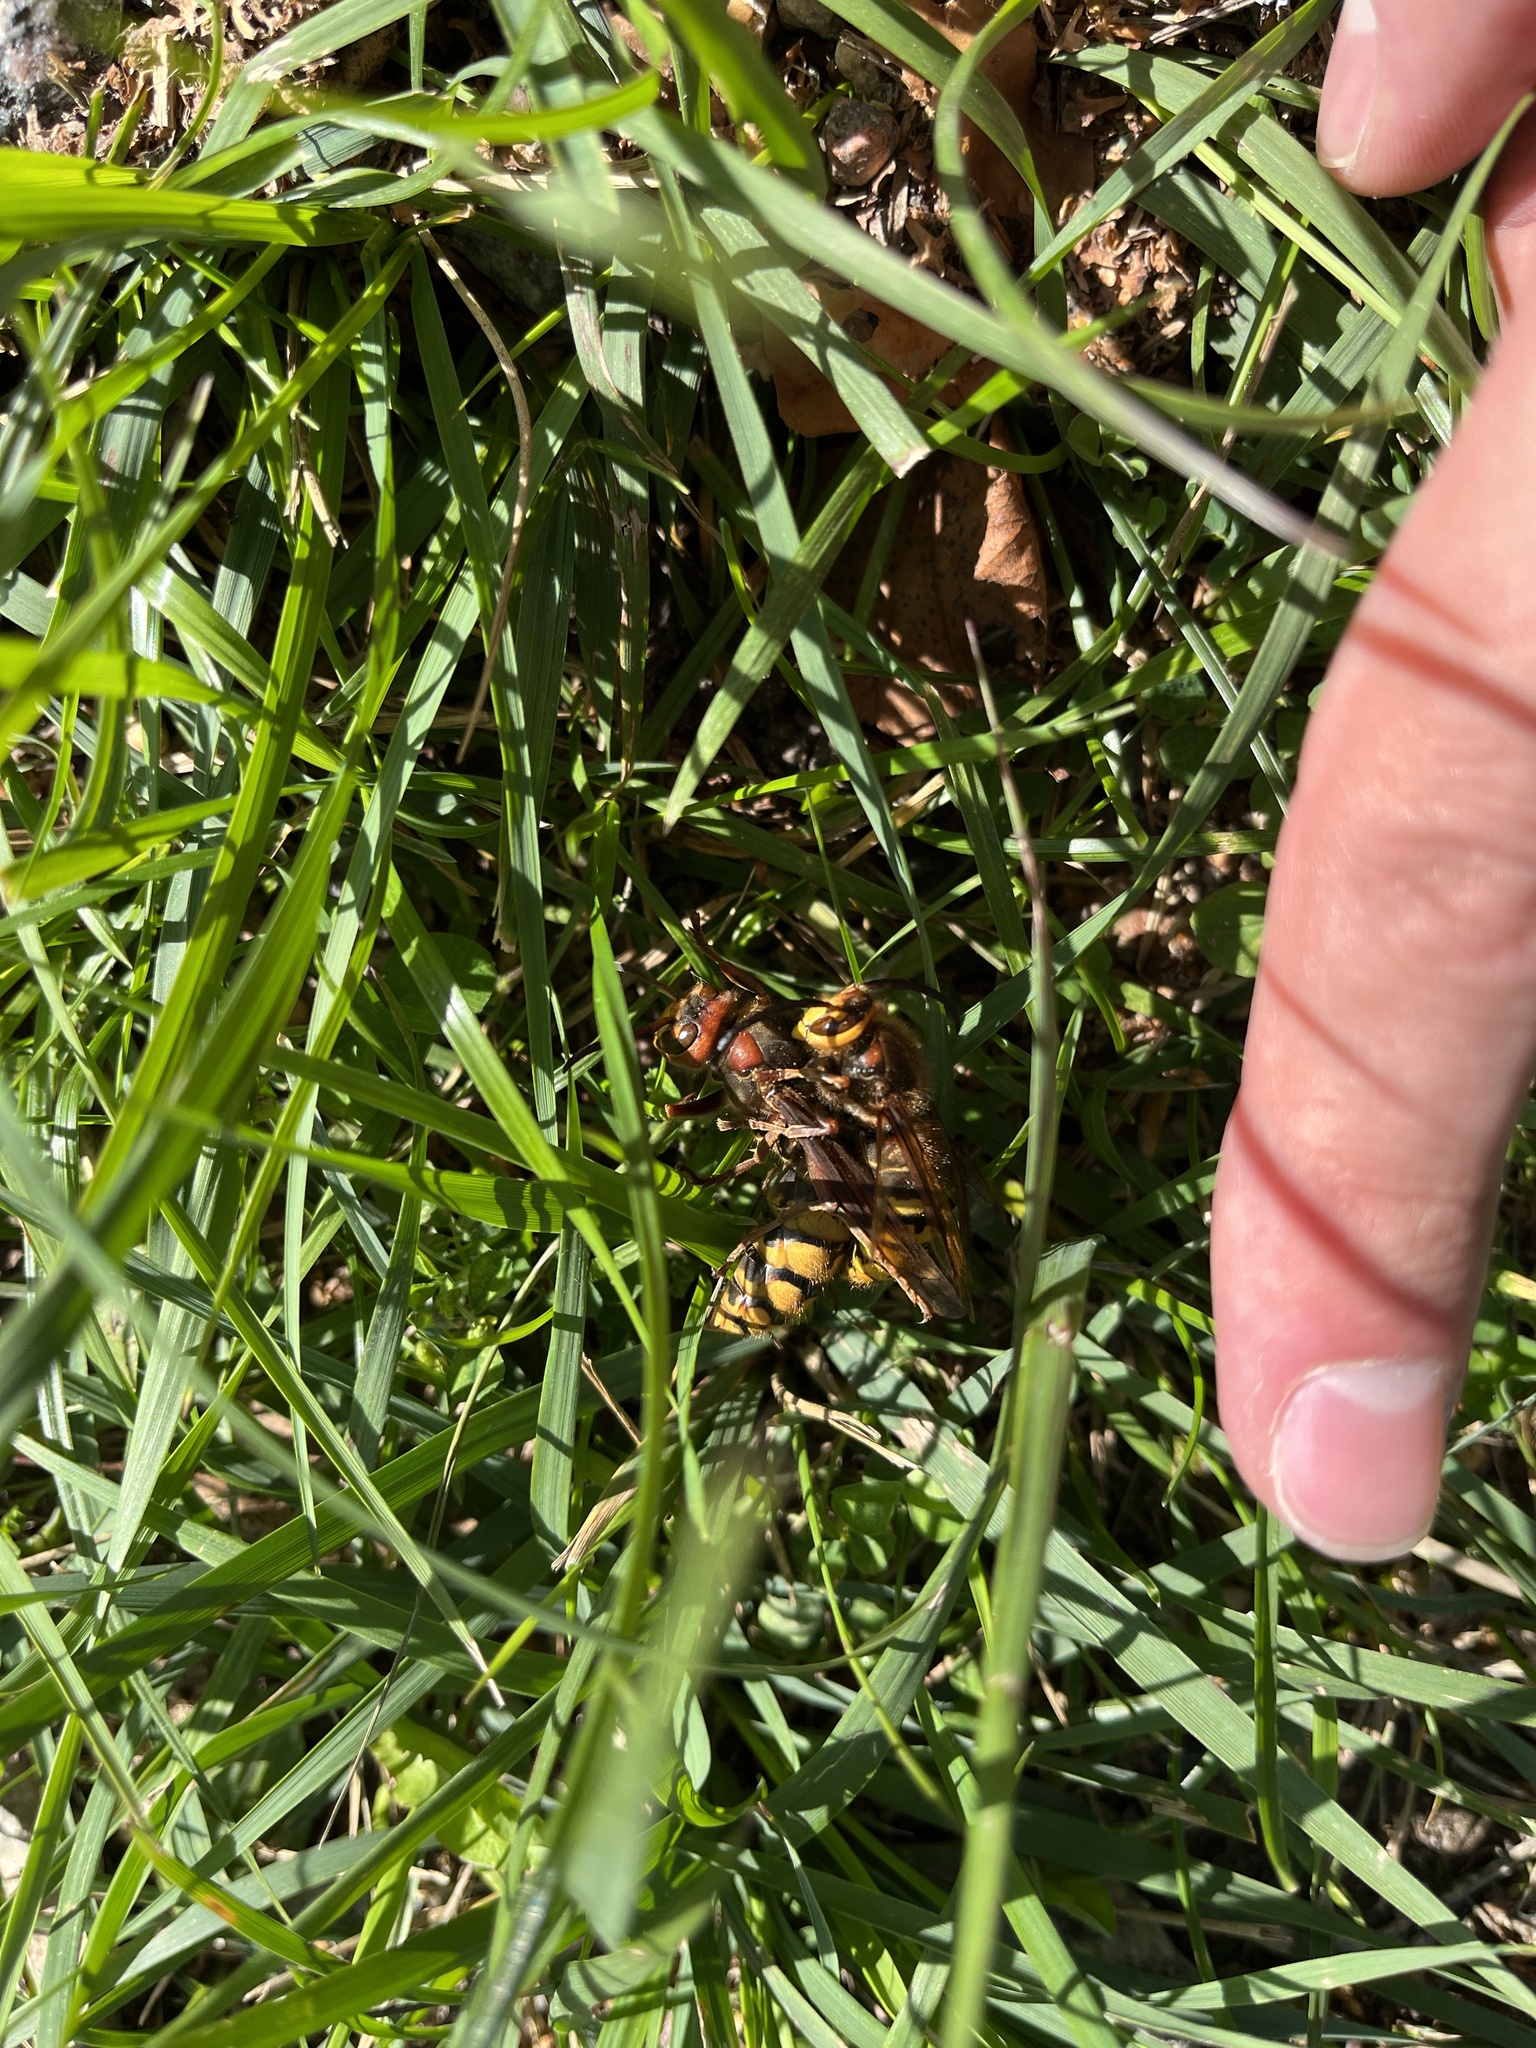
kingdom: Animalia
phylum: Arthropoda
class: Insecta
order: Hymenoptera
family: Vespidae
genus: Vespa
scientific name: Vespa crabro
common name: Hornet
